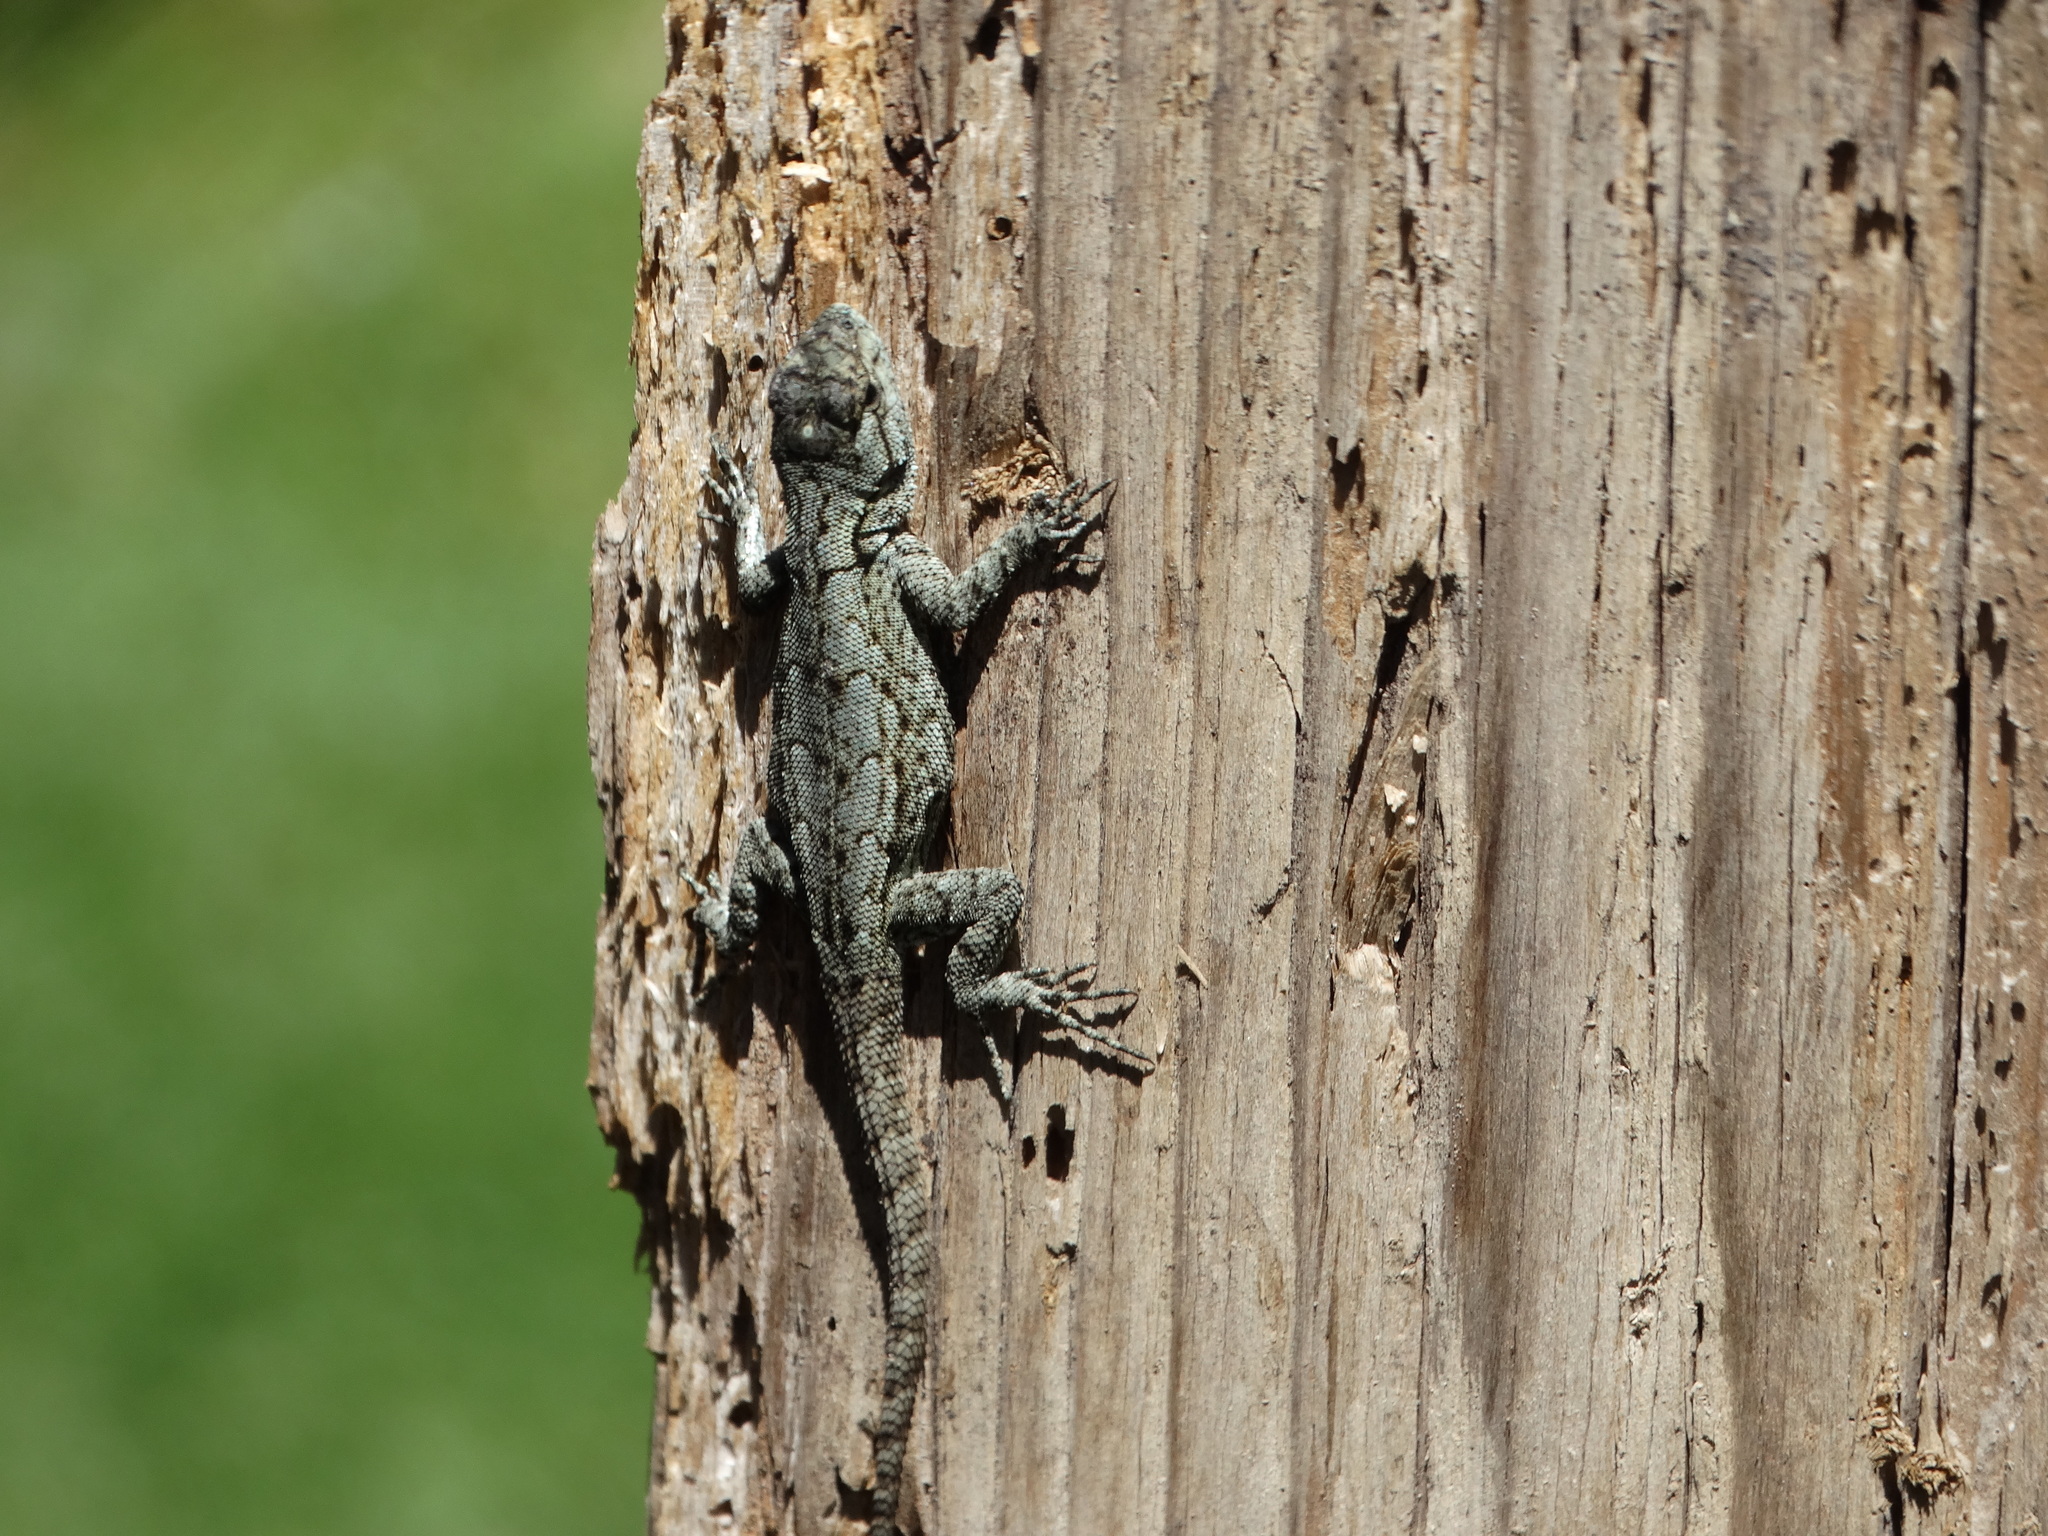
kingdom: Animalia
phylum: Chordata
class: Squamata
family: Phrynosomatidae
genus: Sceloporus
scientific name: Sceloporus grammicus
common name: Mesquite lizard
